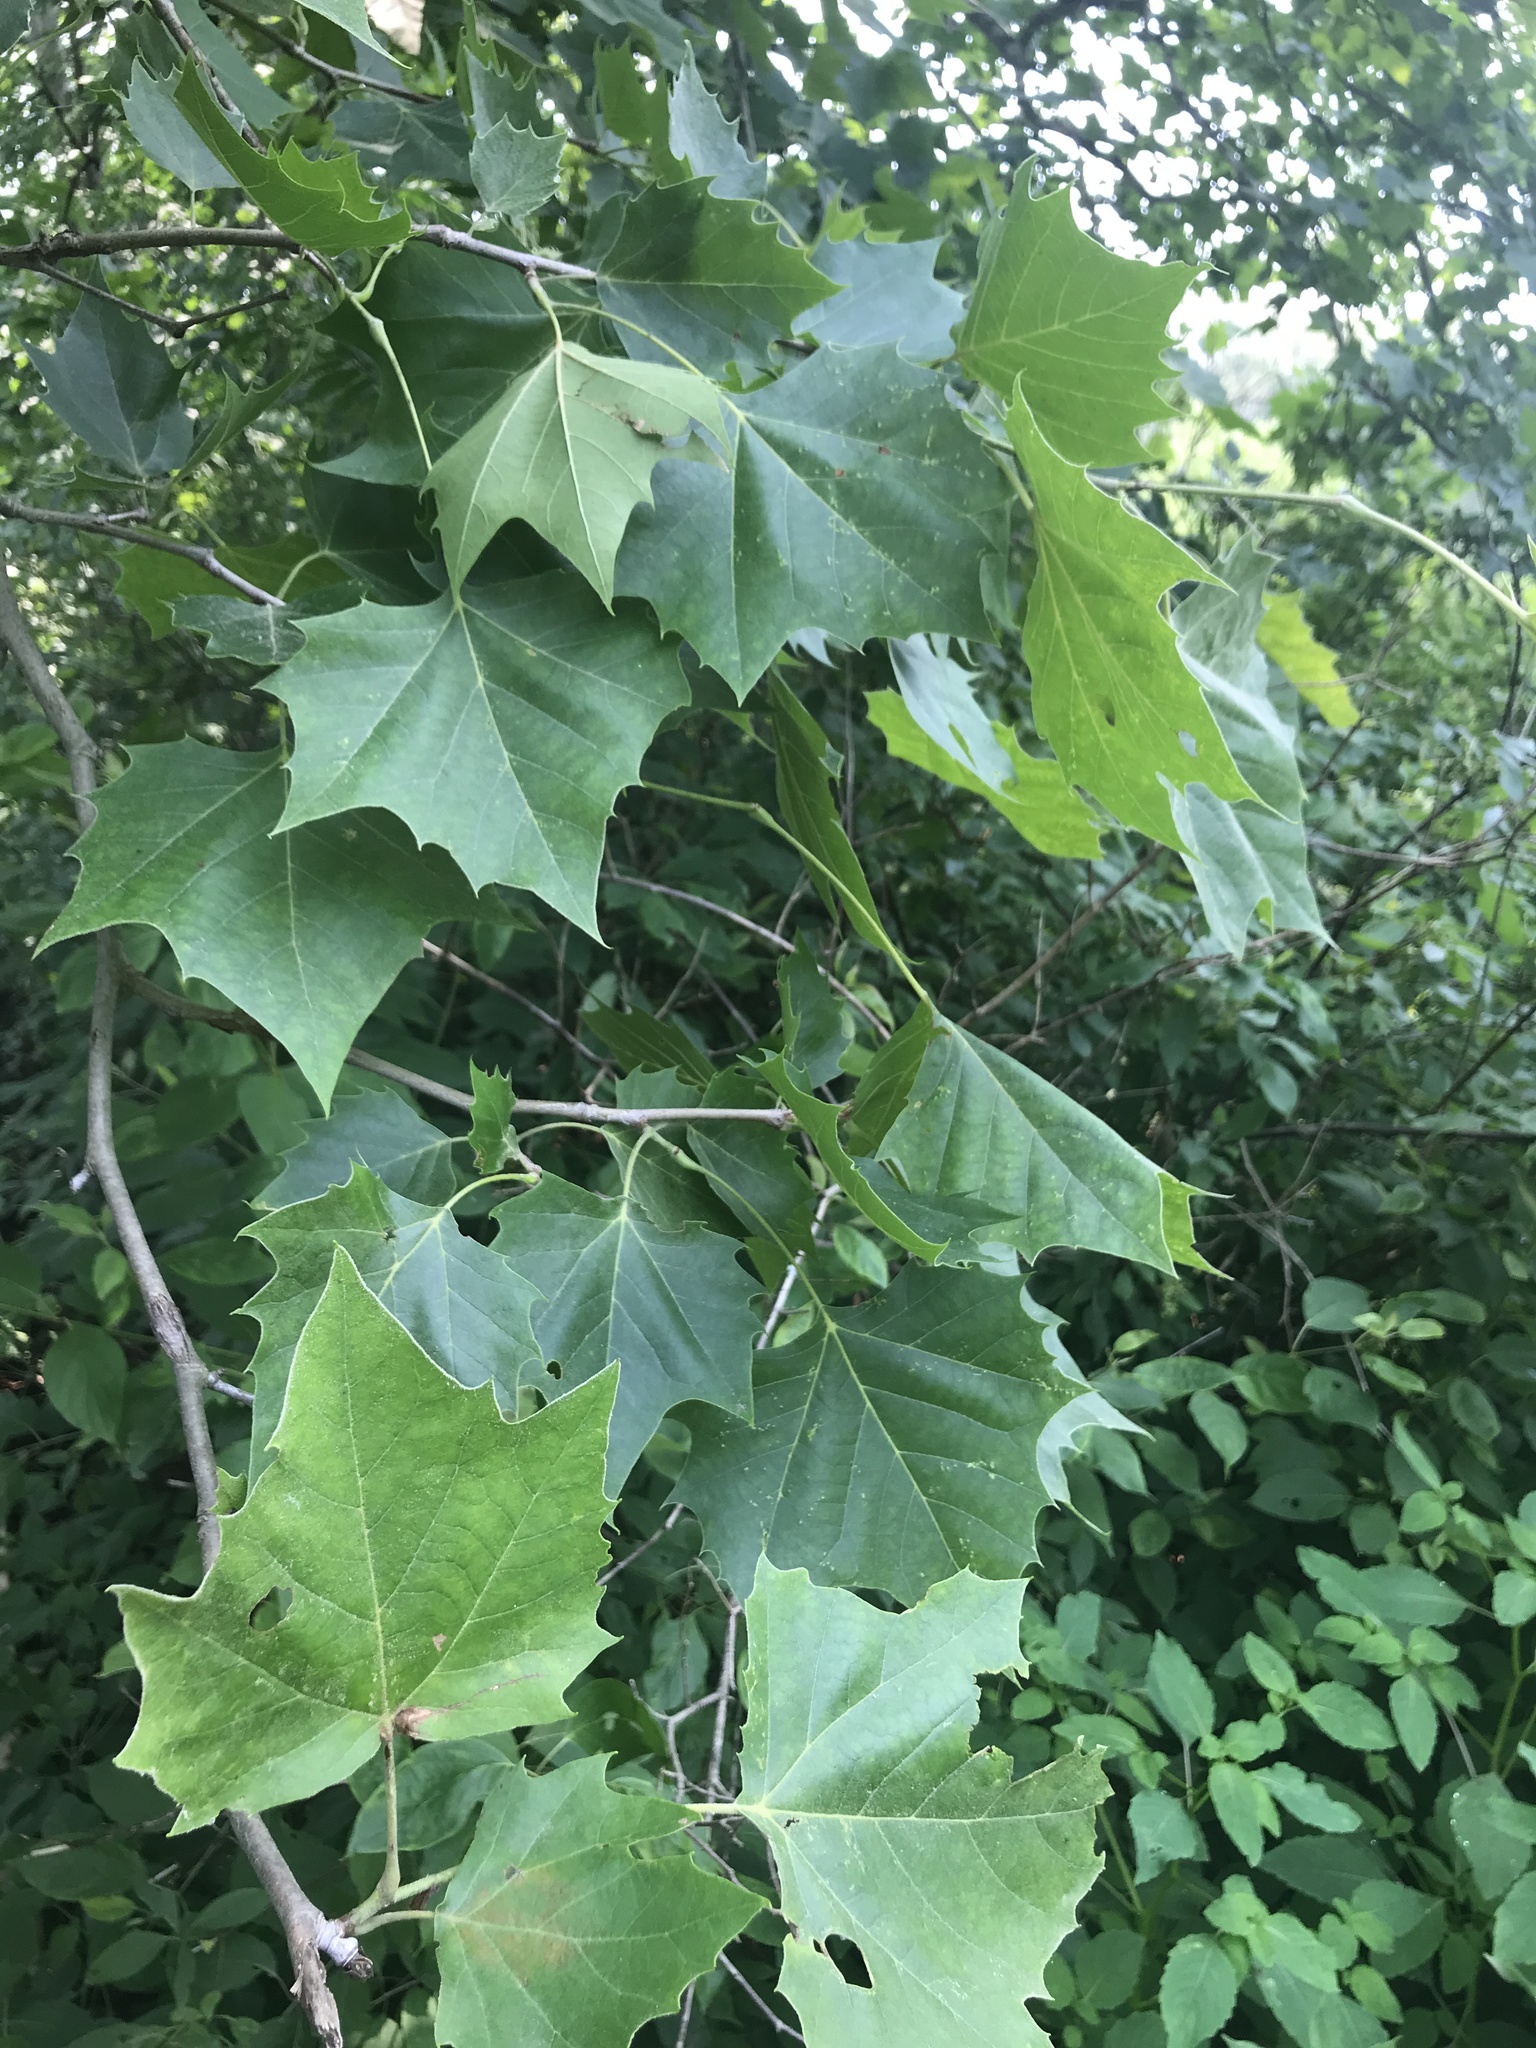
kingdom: Plantae
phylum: Tracheophyta
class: Magnoliopsida
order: Proteales
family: Platanaceae
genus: Platanus
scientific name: Platanus occidentalis
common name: American sycamore
